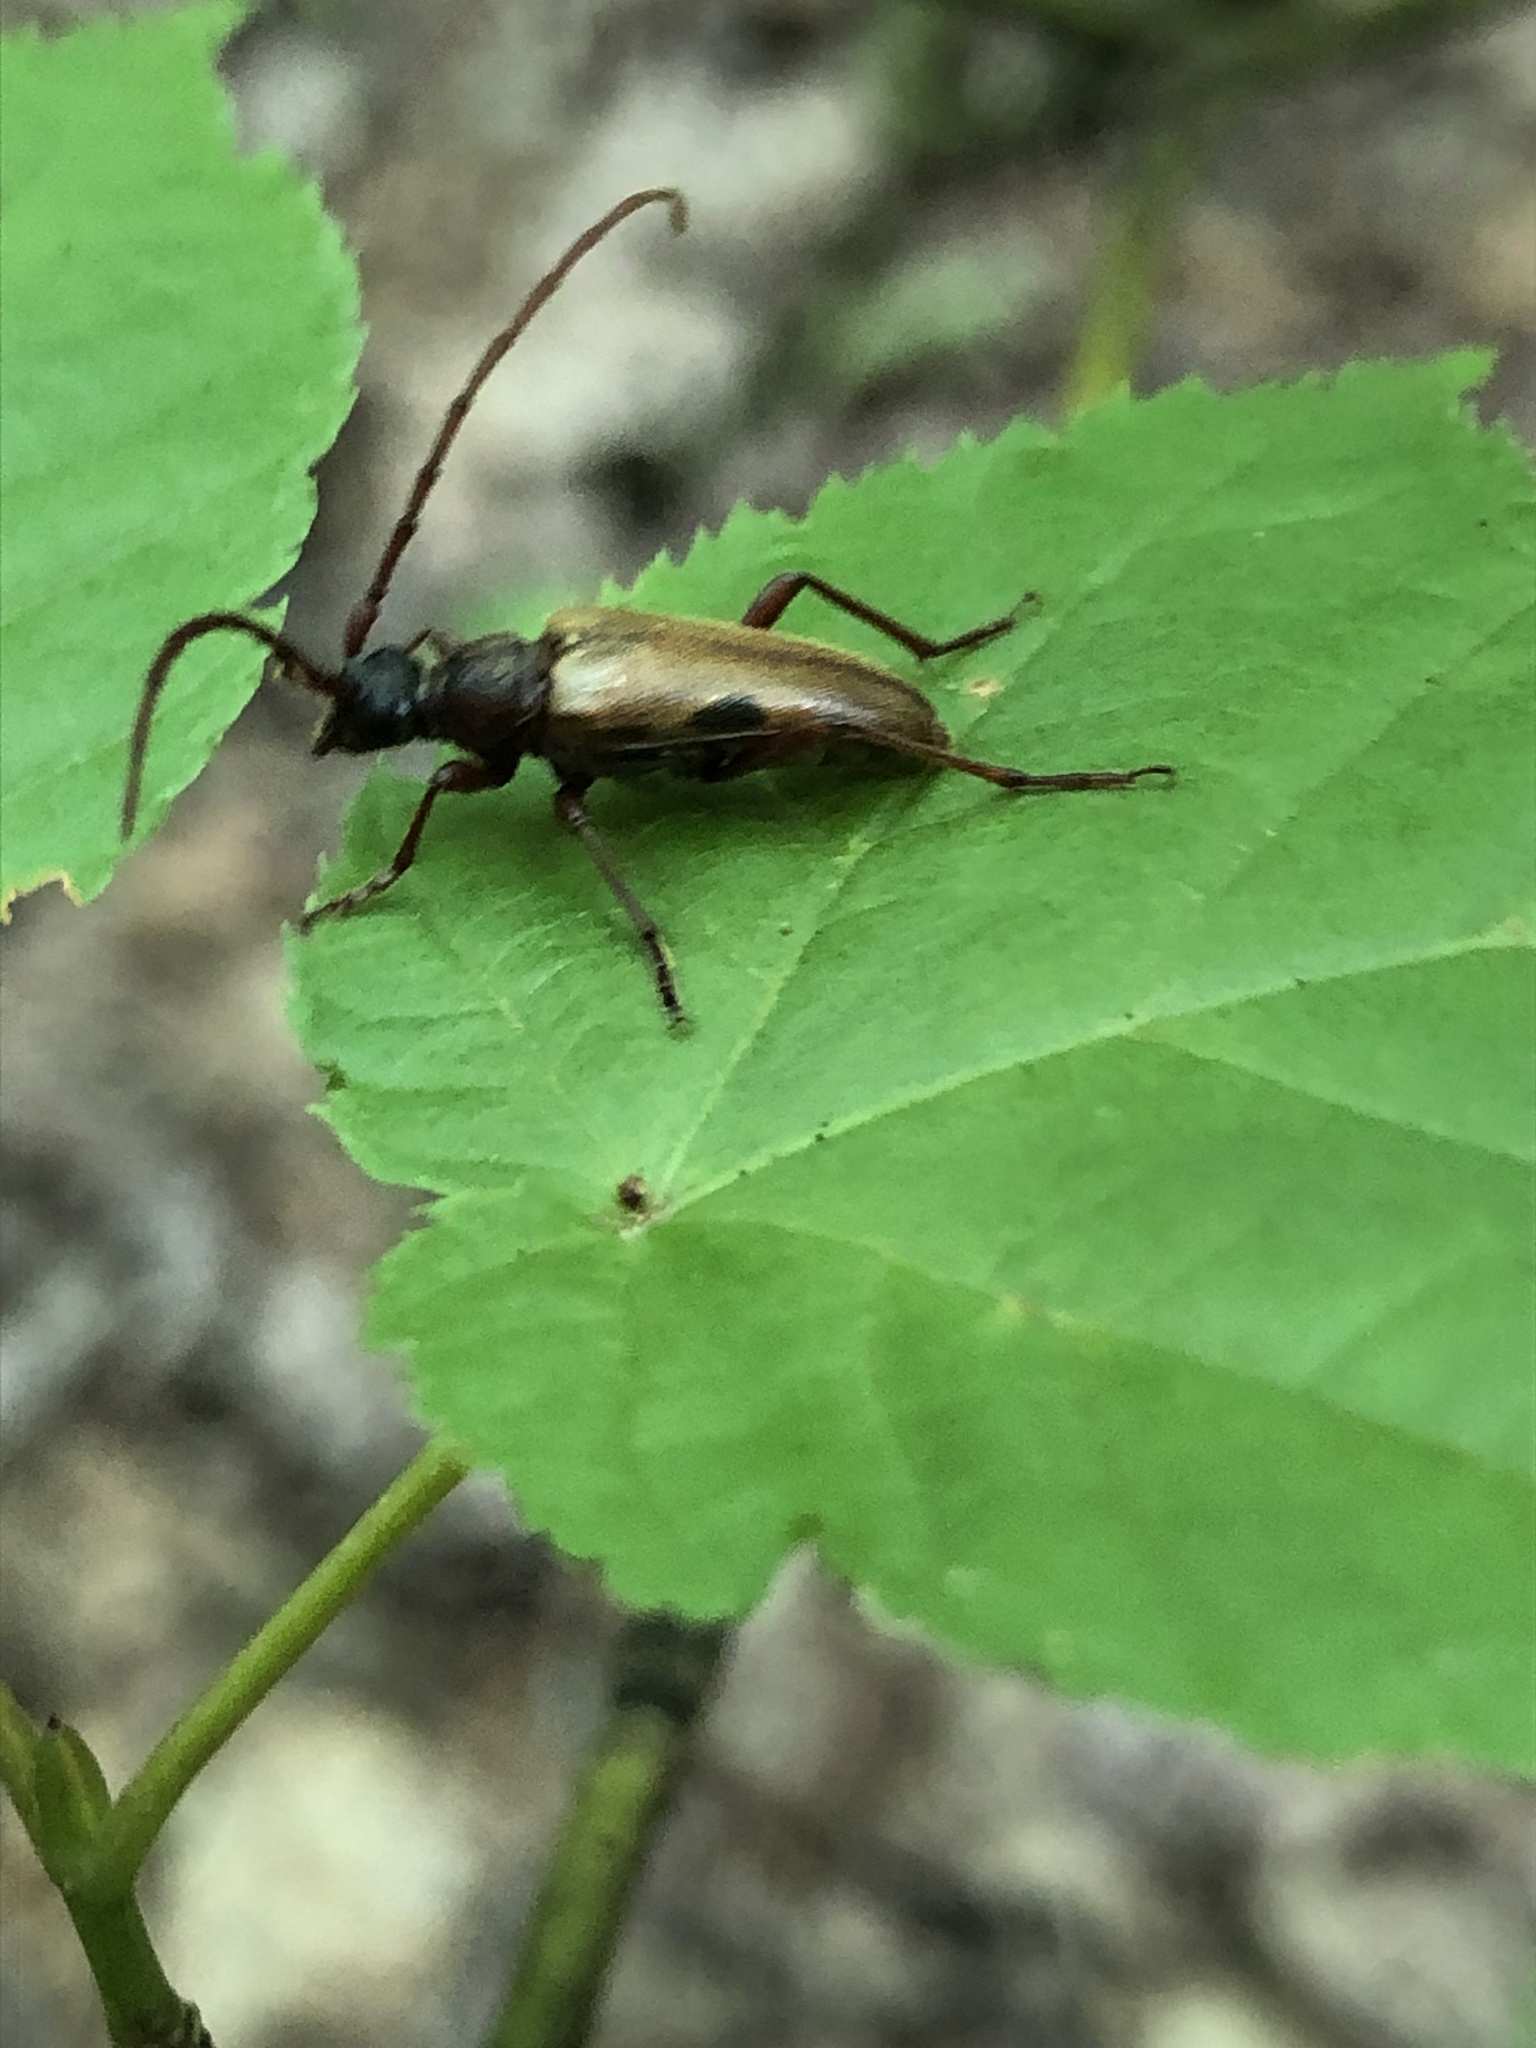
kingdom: Animalia
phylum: Arthropoda
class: Insecta
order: Coleoptera
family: Cerambycidae
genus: Lepturopsis
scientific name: Lepturopsis biforis
